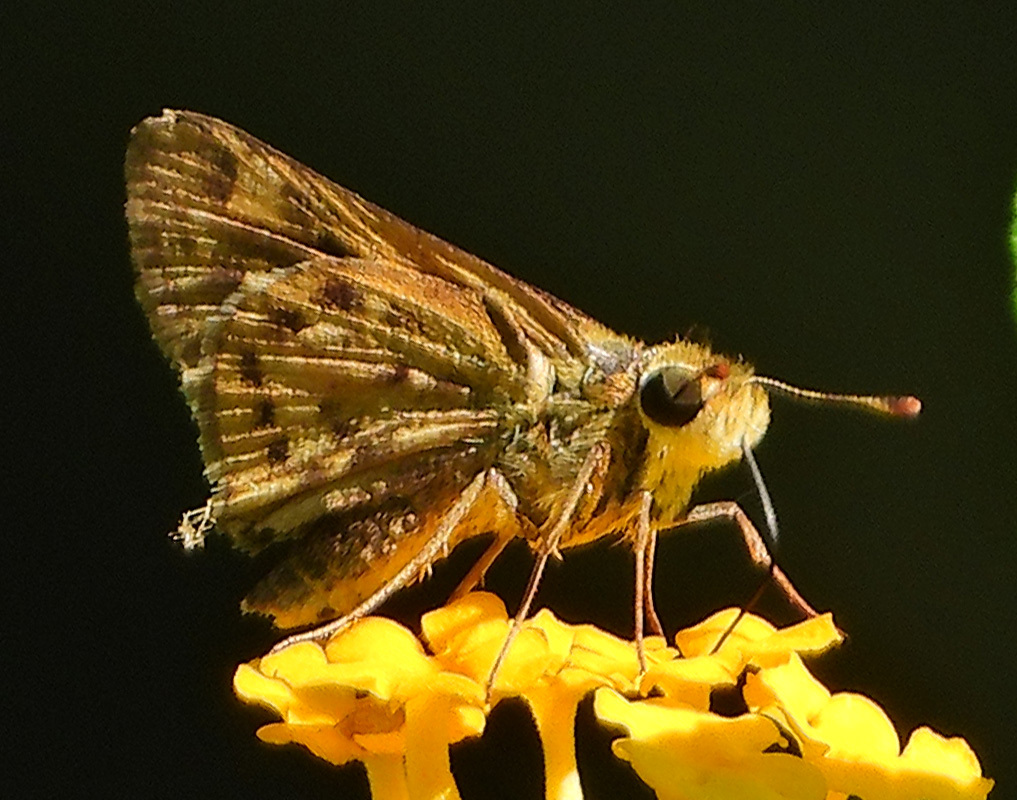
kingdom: Animalia
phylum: Arthropoda
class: Insecta
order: Lepidoptera
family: Hesperiidae
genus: Hylephila
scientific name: Hylephila phyleus
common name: Fiery skipper
